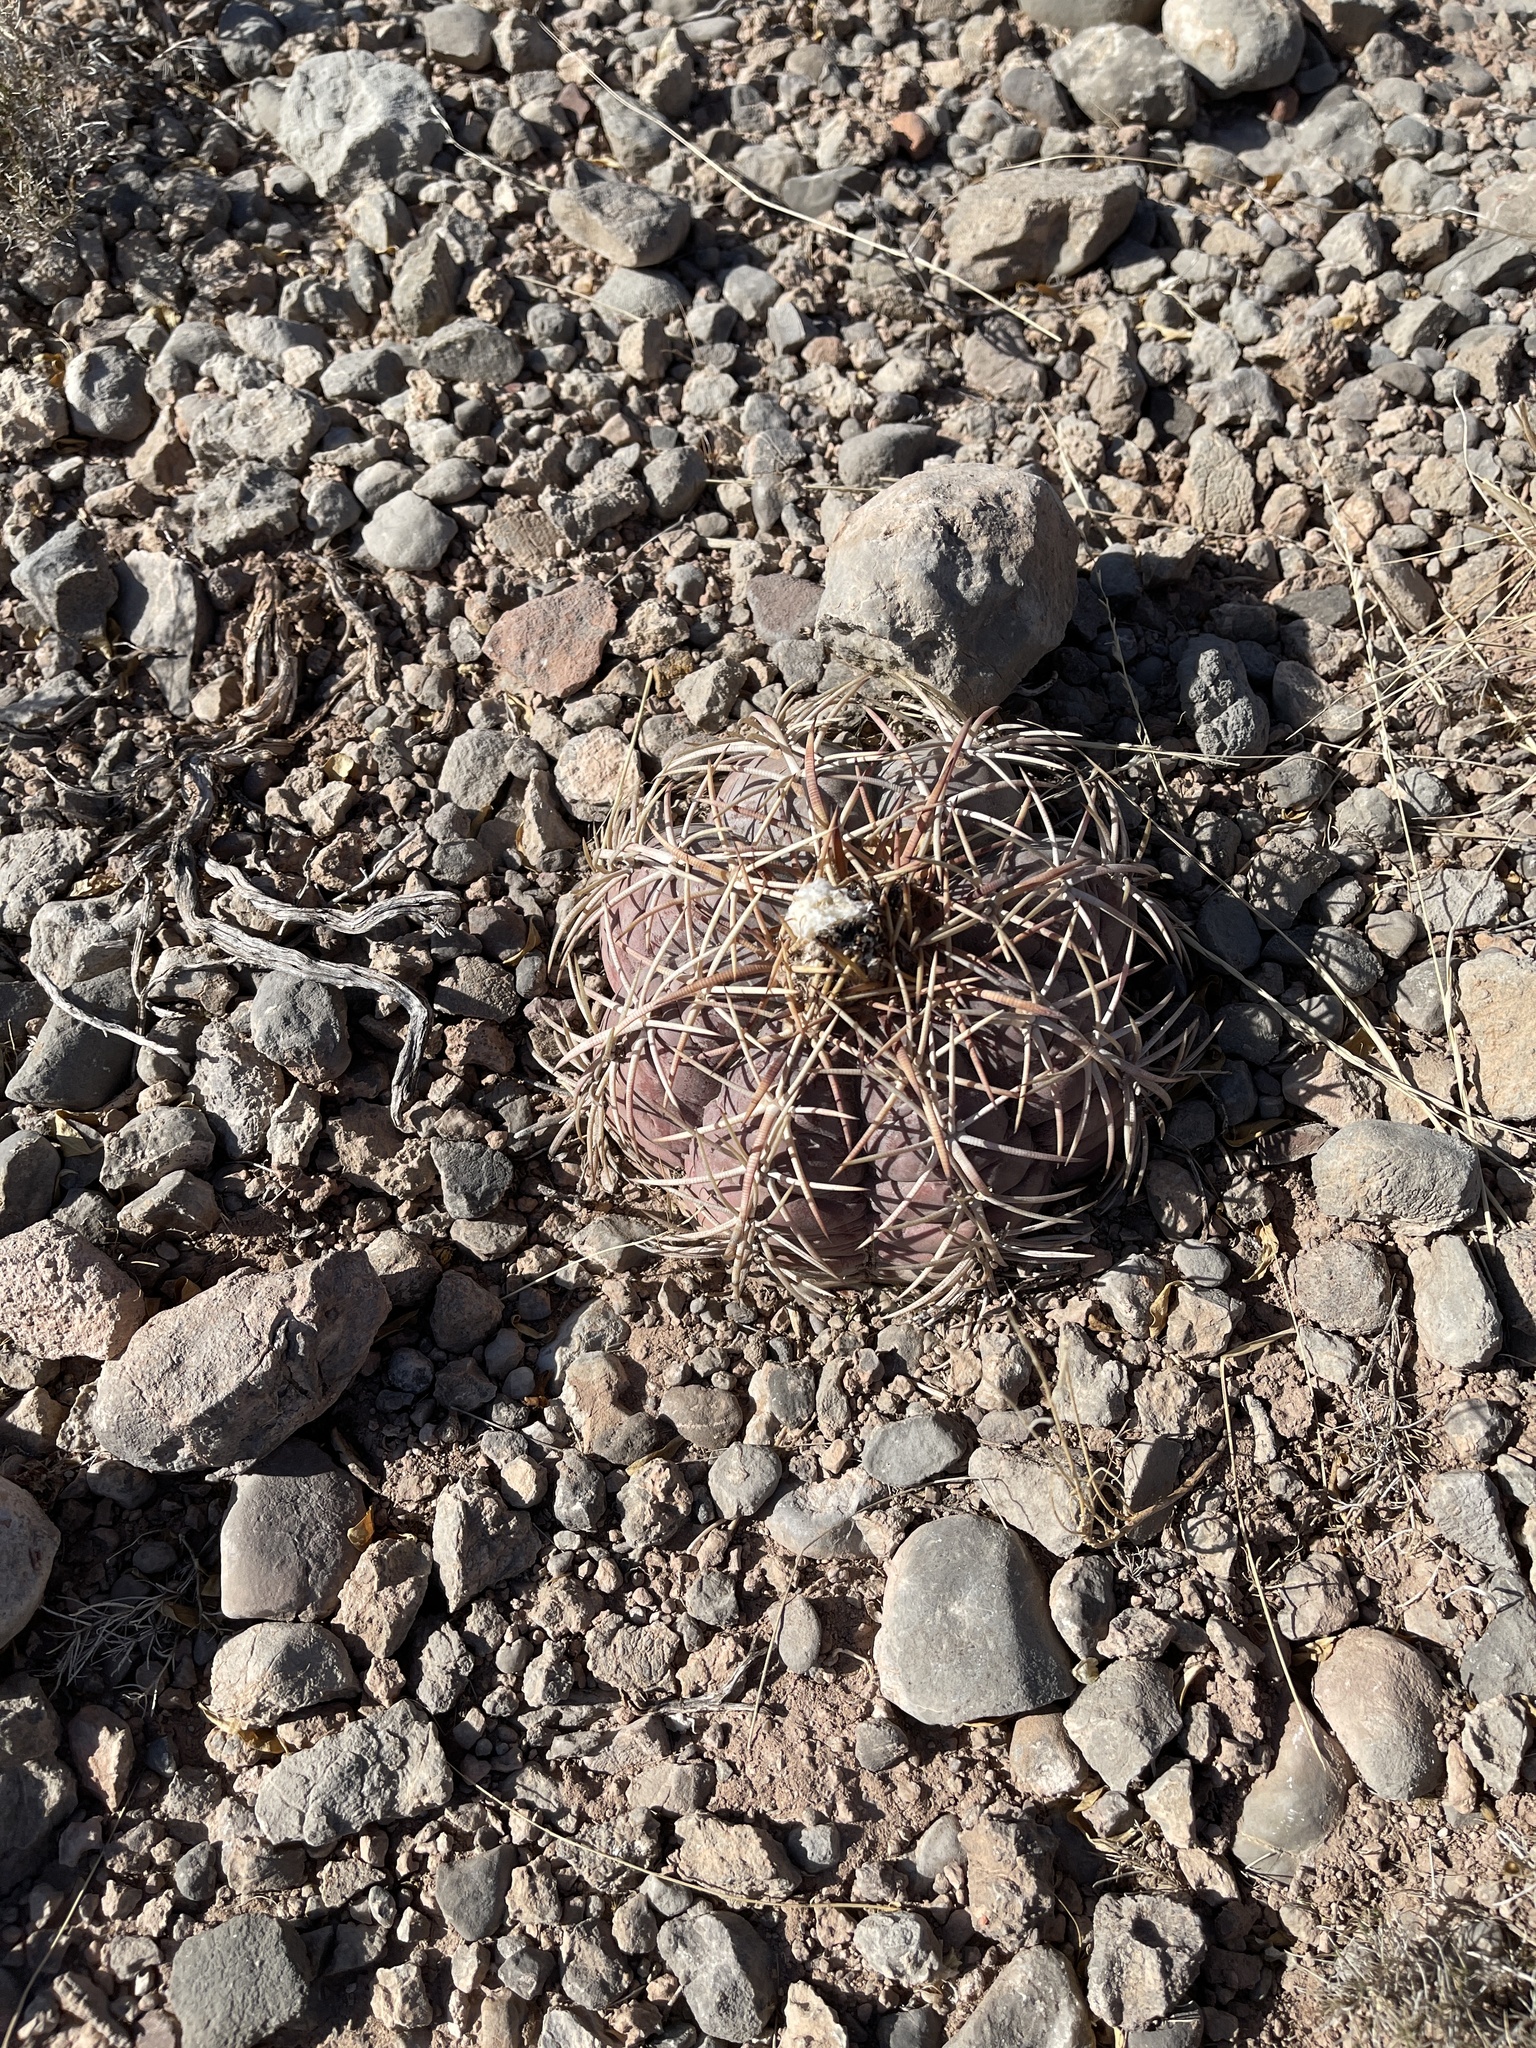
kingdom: Plantae
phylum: Tracheophyta
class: Magnoliopsida
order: Caryophyllales
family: Cactaceae
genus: Echinocactus
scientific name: Echinocactus horizonthalonius
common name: Devilshead
